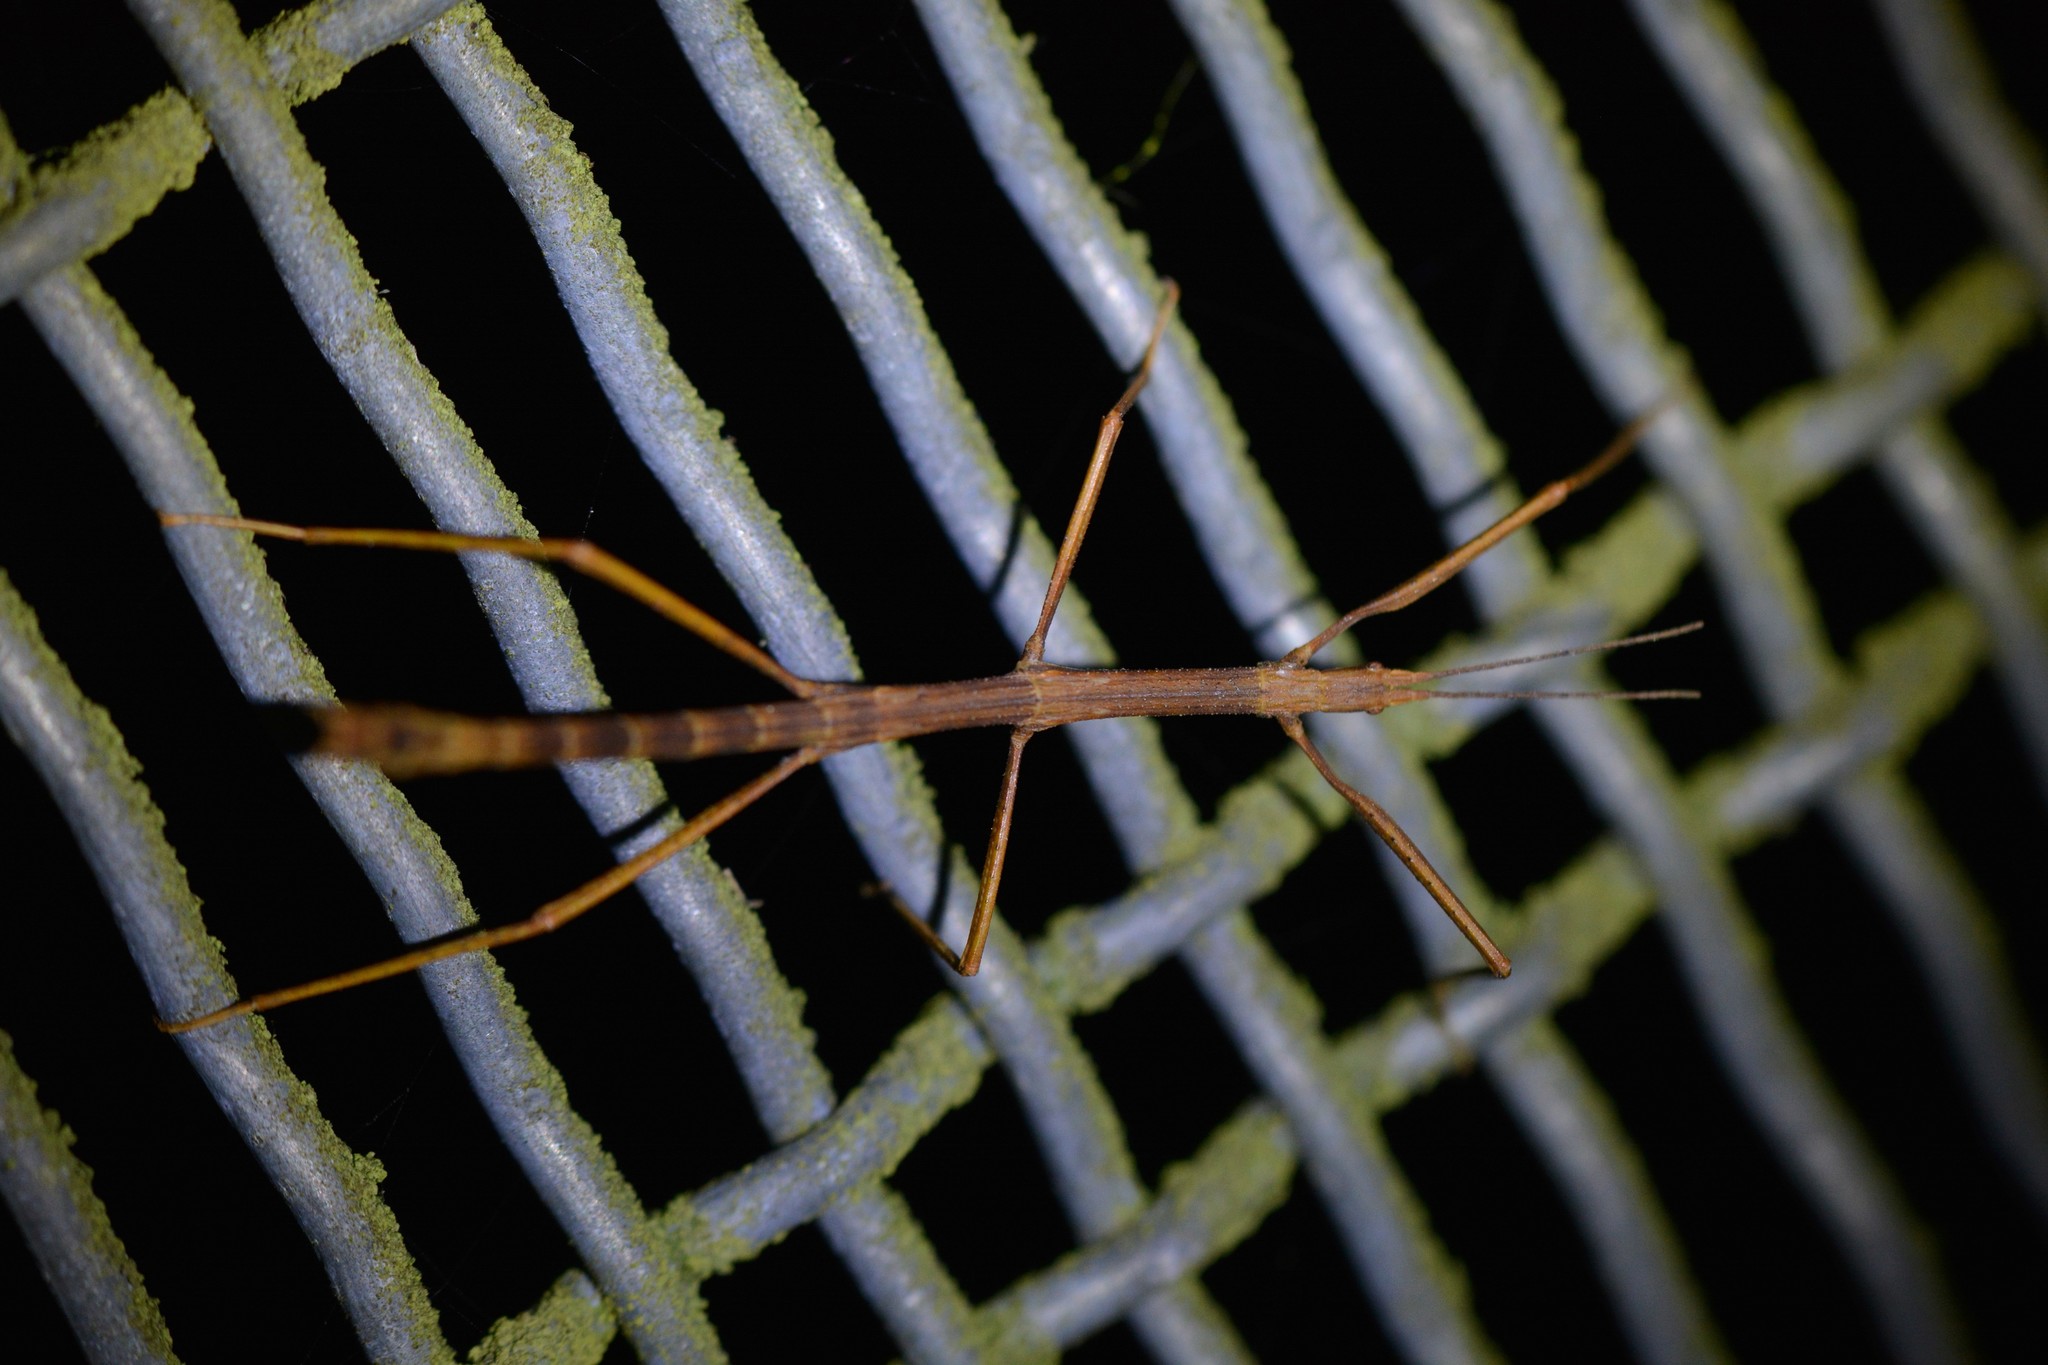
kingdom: Animalia
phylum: Arthropoda
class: Insecta
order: Phasmida
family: Phasmatidae
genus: Tectarchus
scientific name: Tectarchus huttoni
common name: The common ridge-backed stick insect
